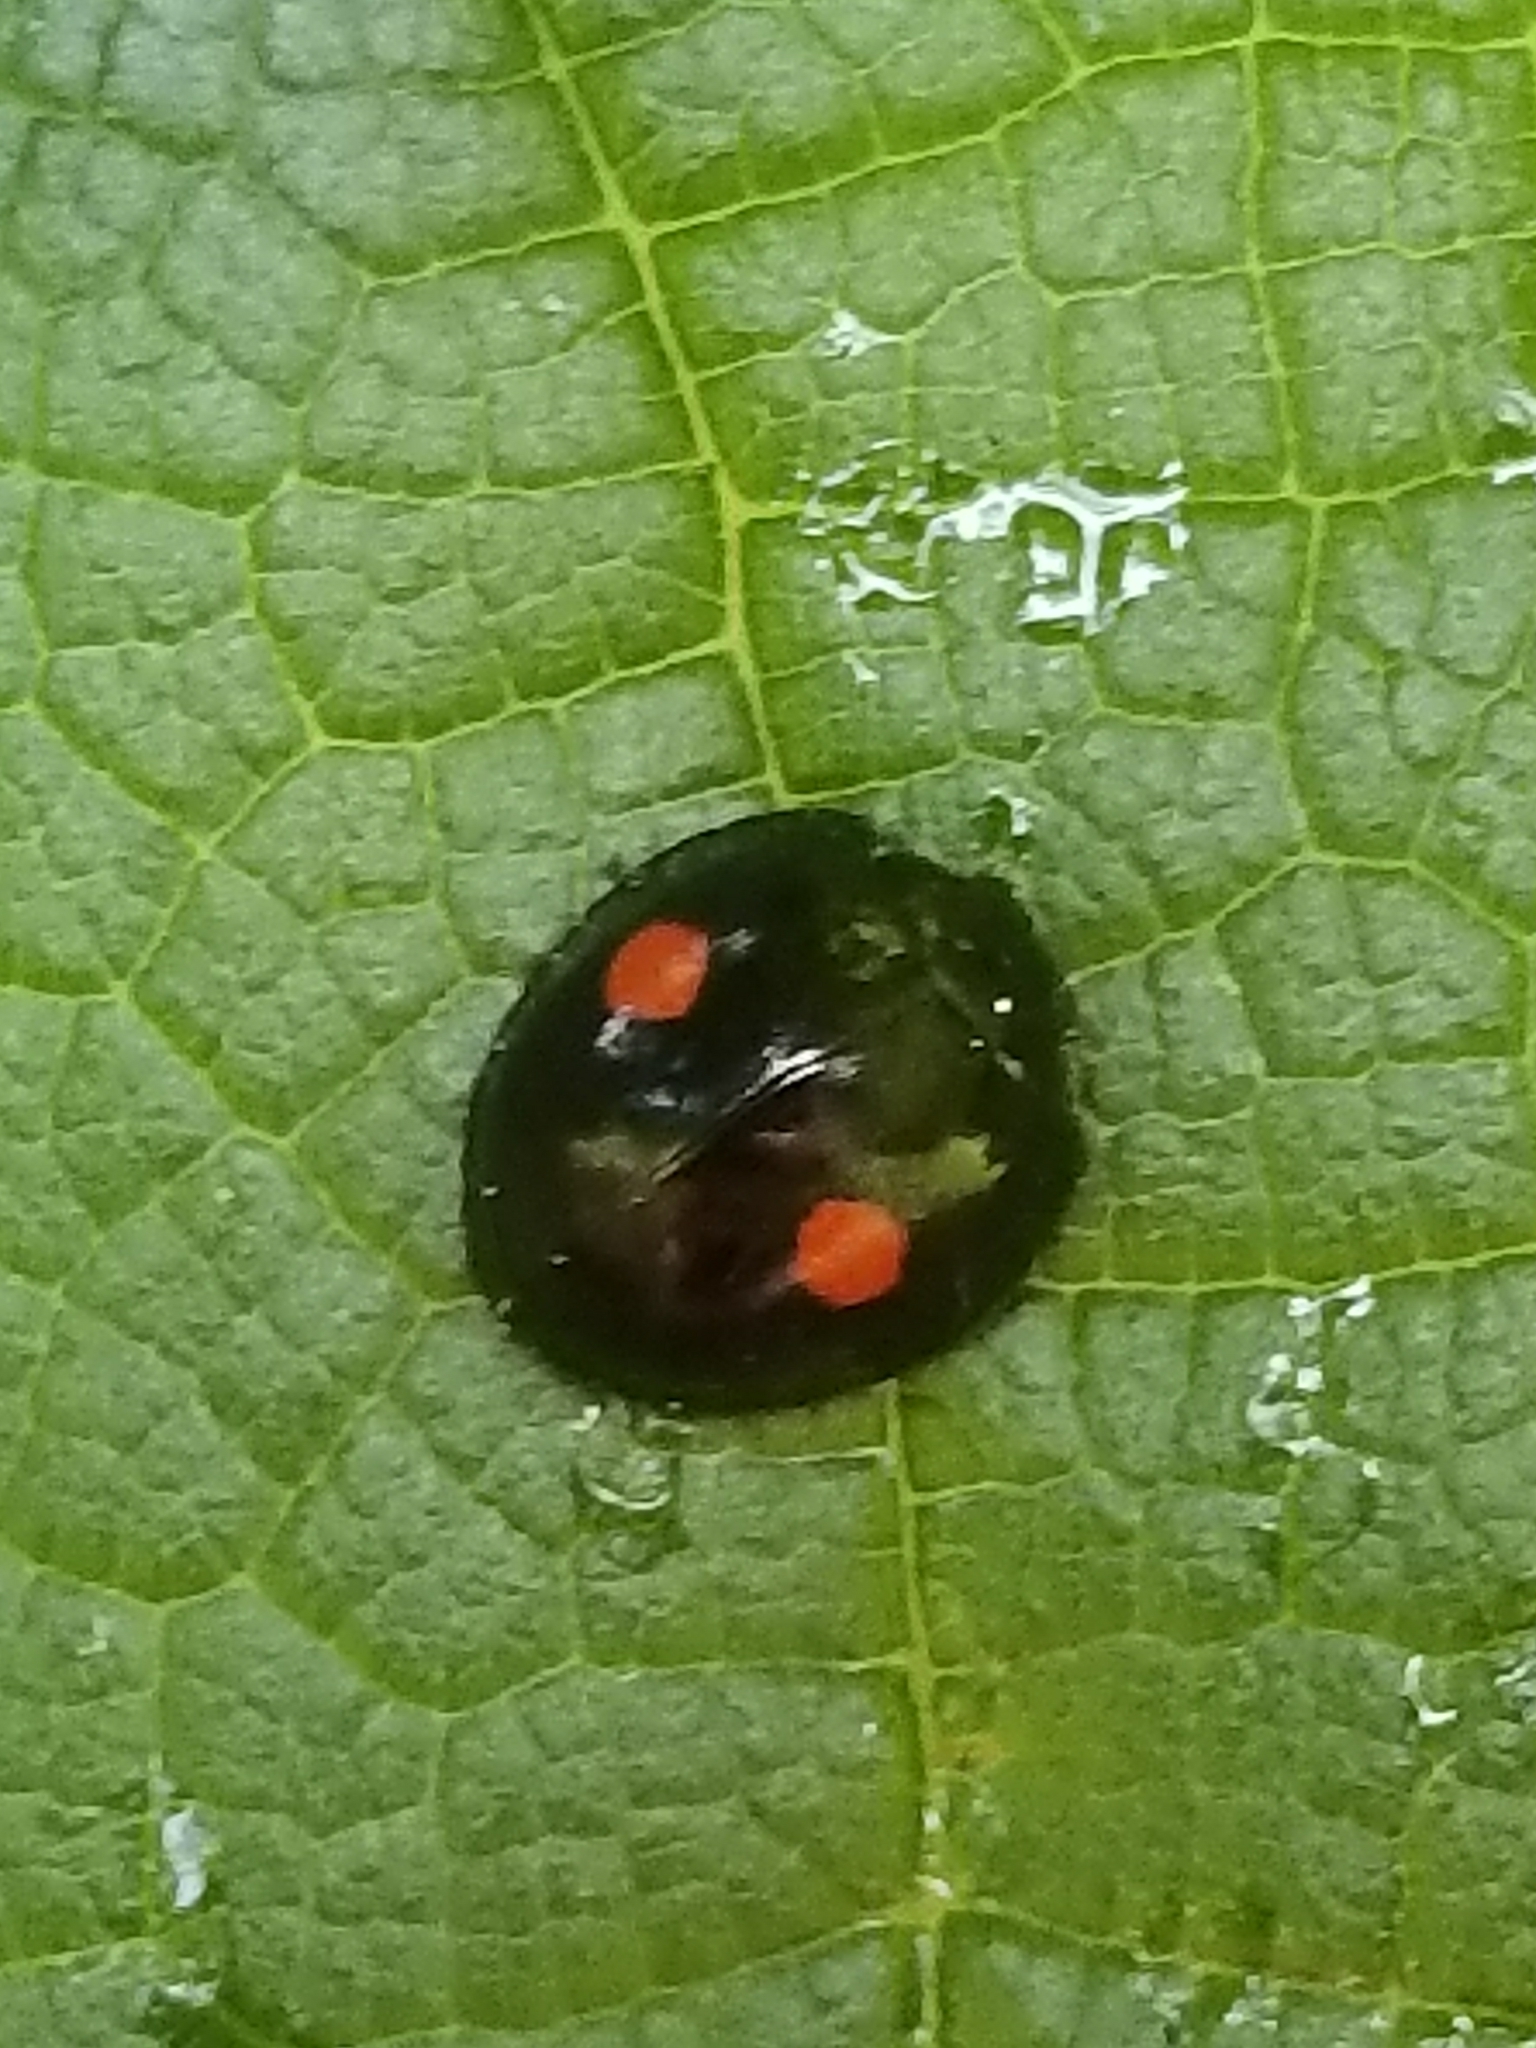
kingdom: Animalia
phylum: Arthropoda
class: Insecta
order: Coleoptera
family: Coccinellidae
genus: Chilocorus
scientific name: Chilocorus stigma
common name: Twicestabbed lady beetle
